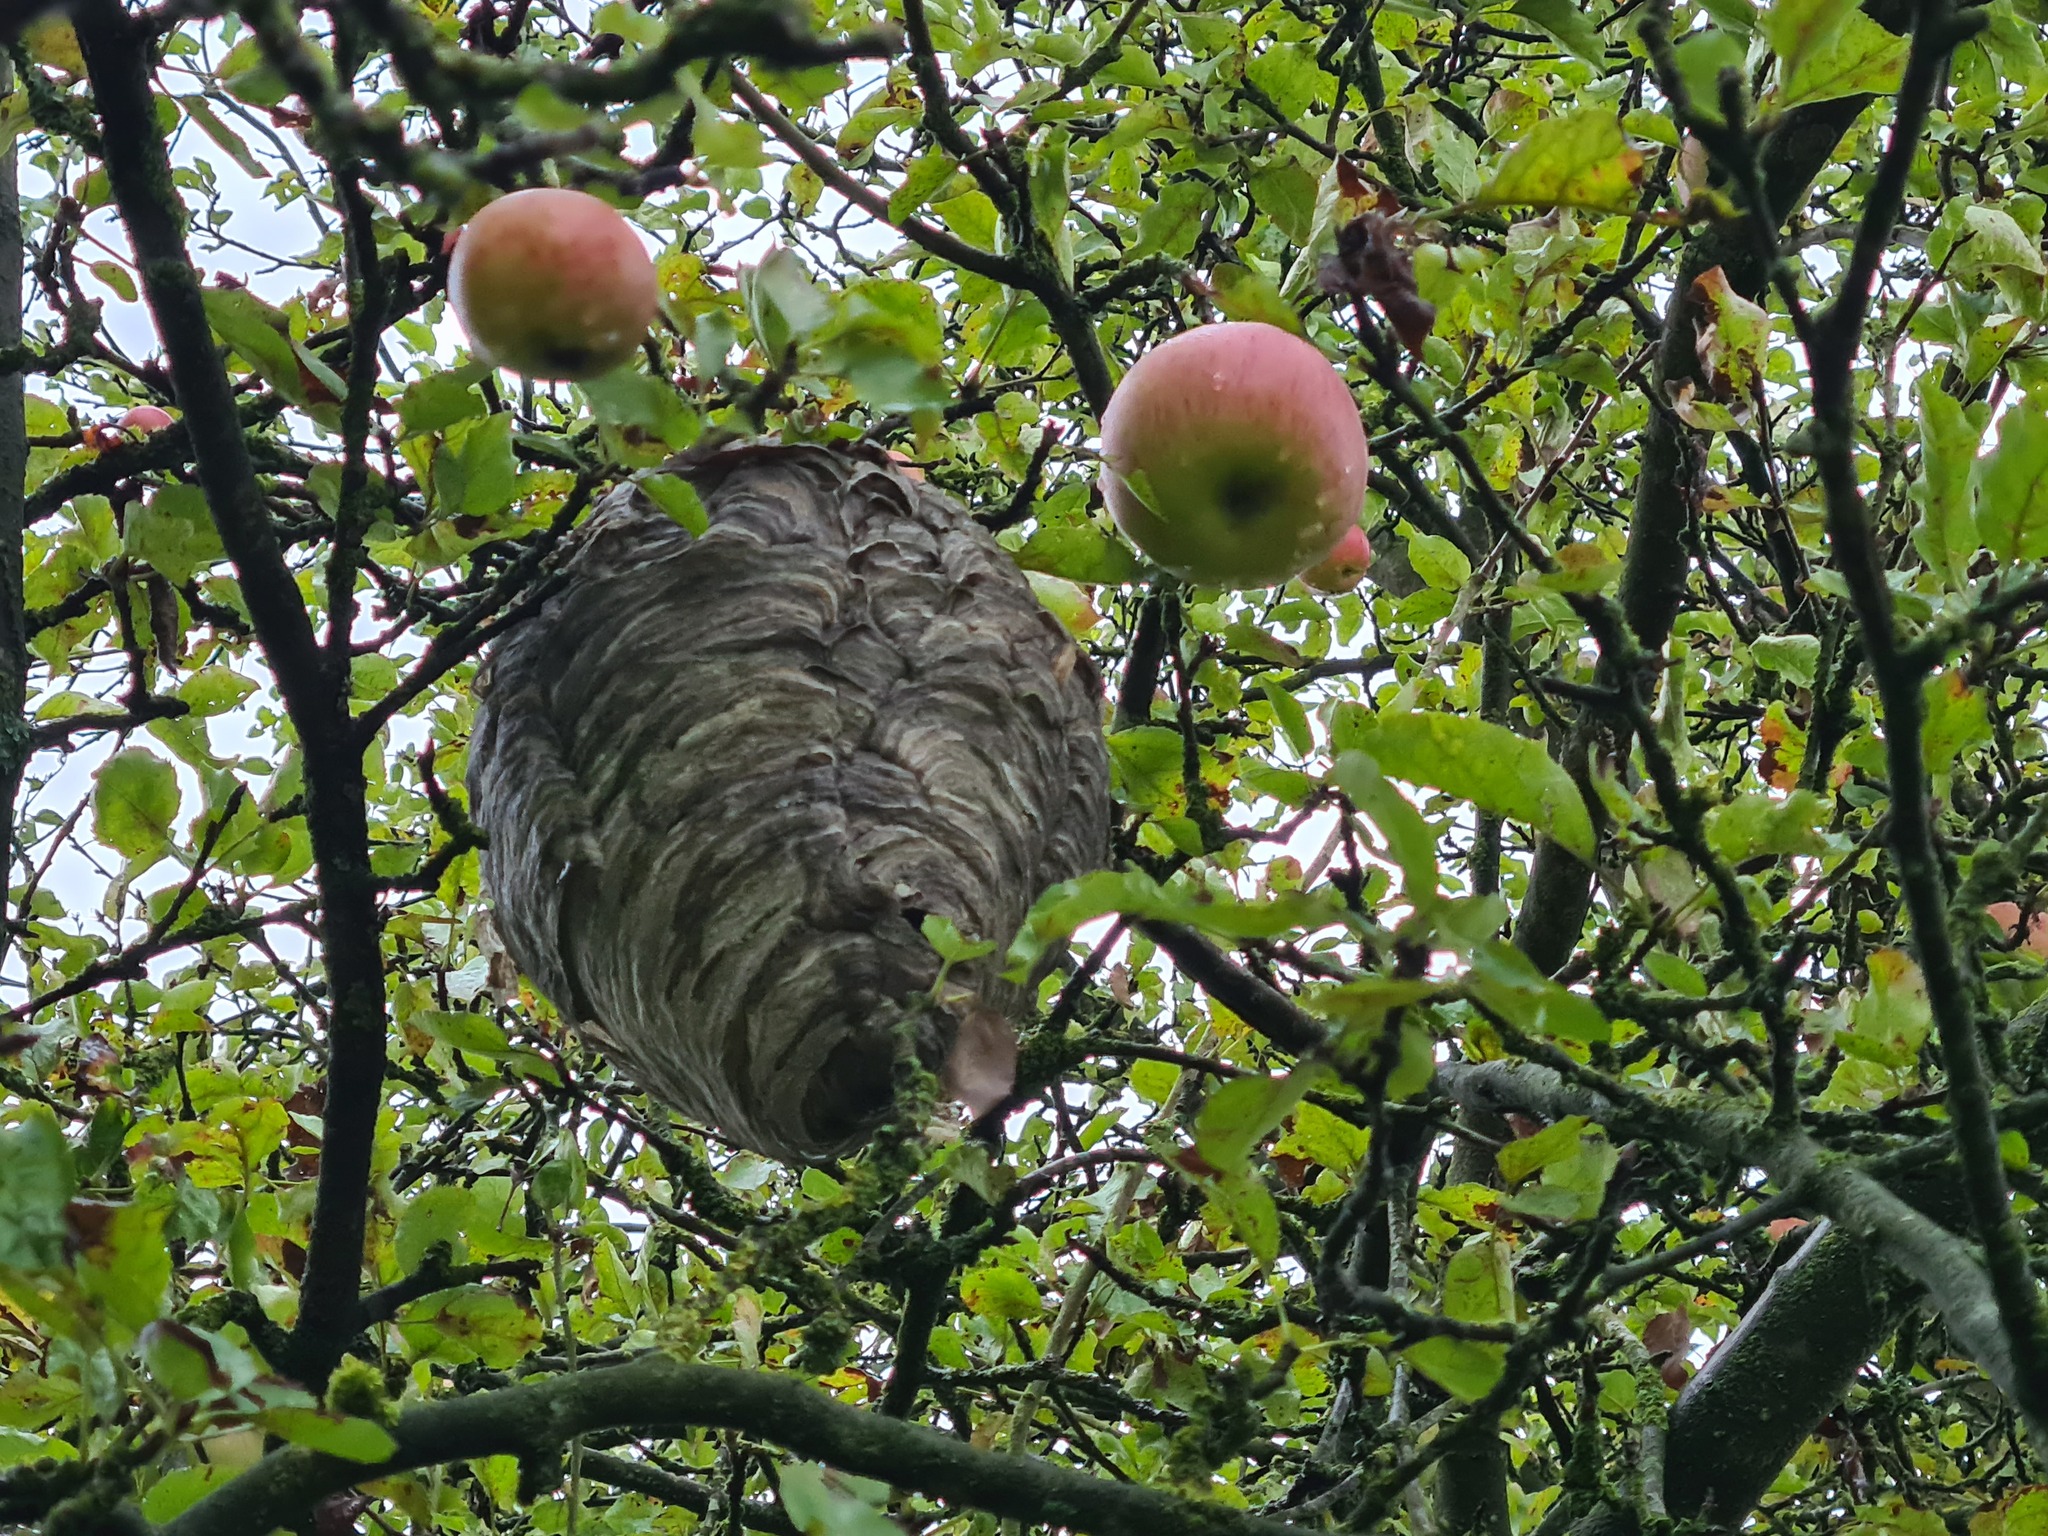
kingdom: Animalia
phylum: Arthropoda
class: Insecta
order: Hymenoptera
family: Vespidae
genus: Dolichovespula
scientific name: Dolichovespula media
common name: Median wasp
